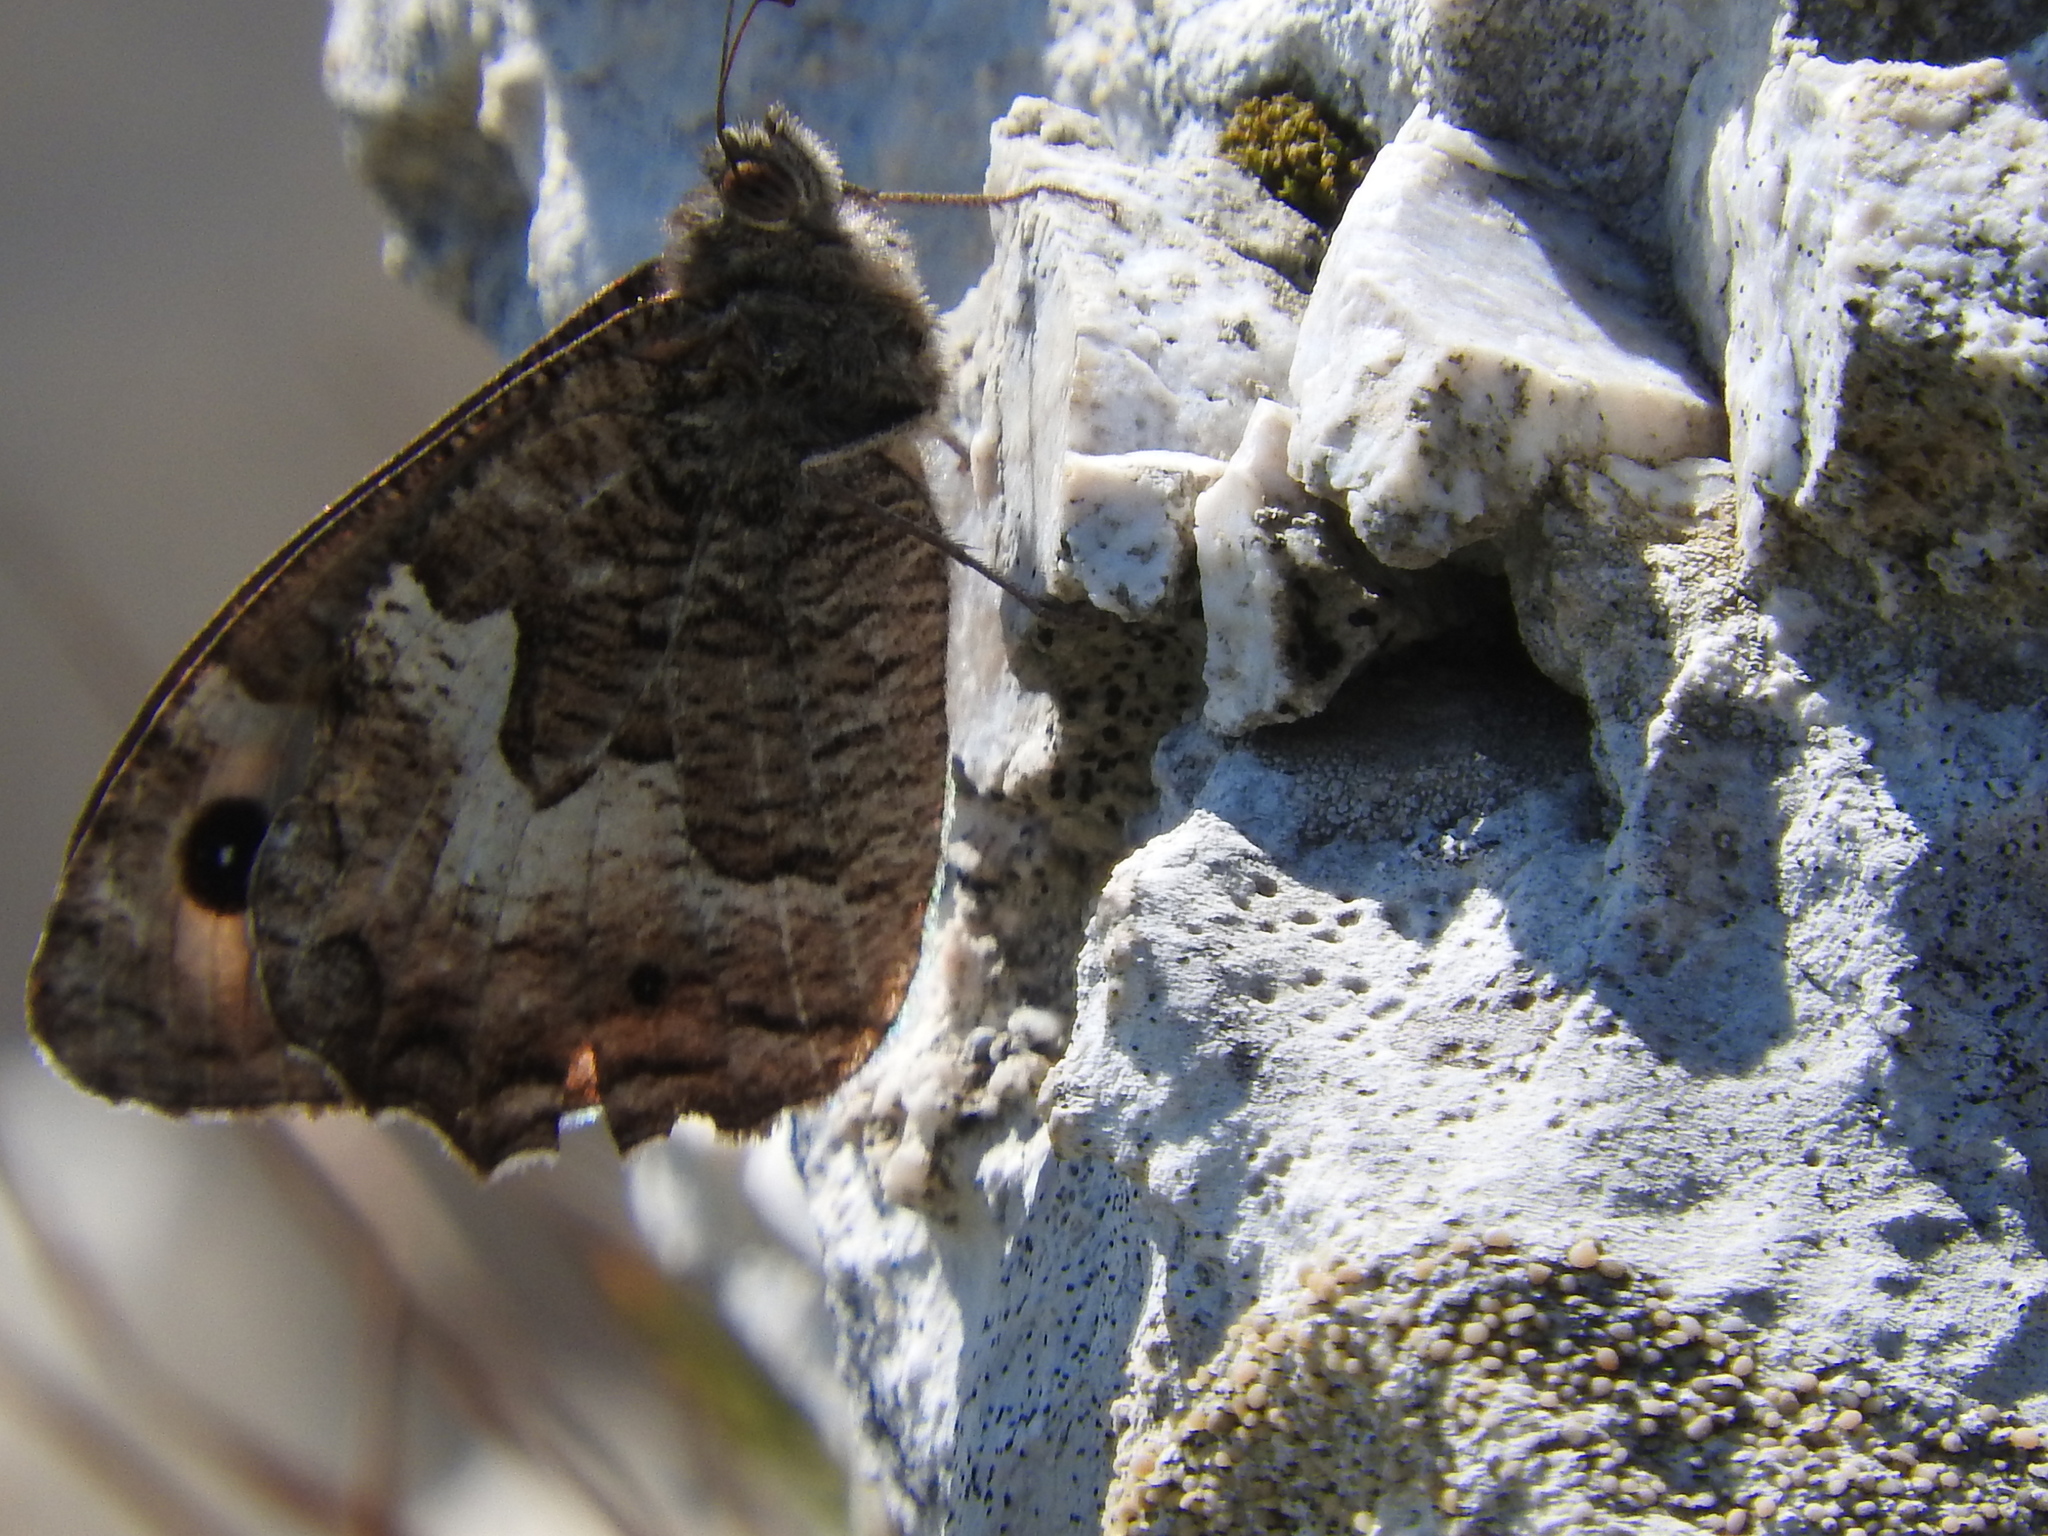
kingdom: Animalia
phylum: Arthropoda
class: Insecta
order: Lepidoptera
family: Nymphalidae
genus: Hipparchia
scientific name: Hipparchia semele
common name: Grayling
